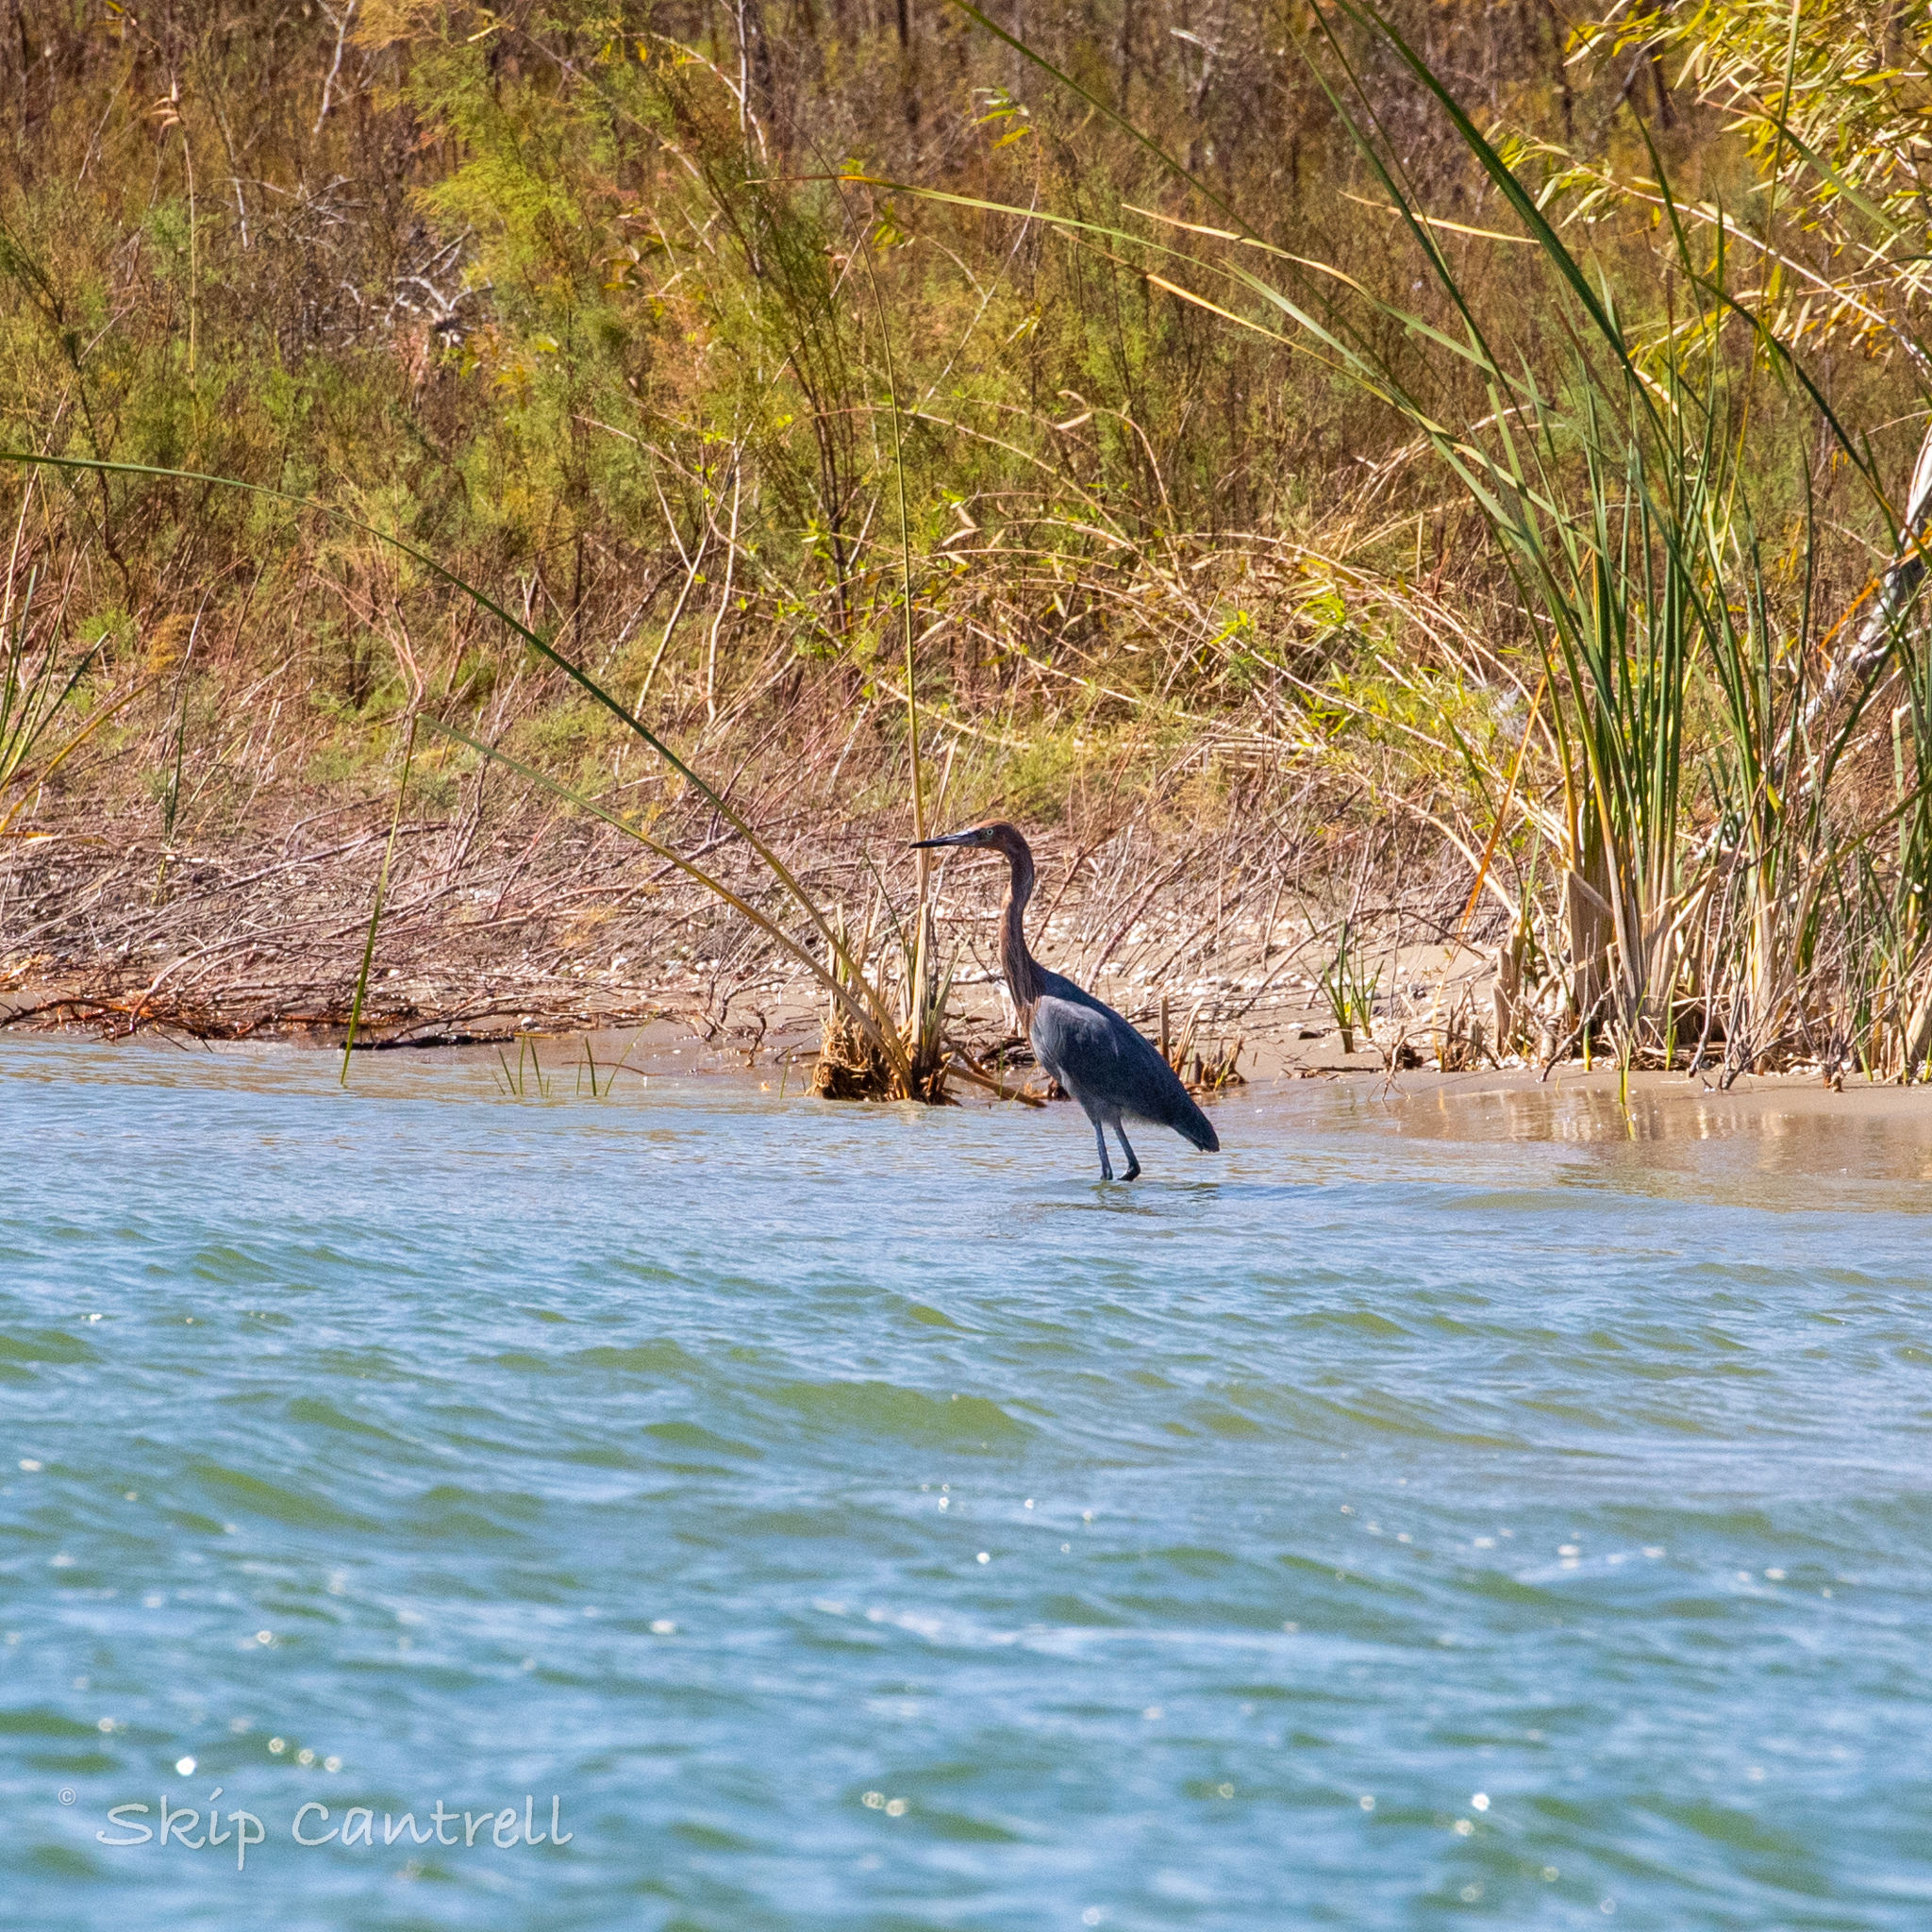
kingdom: Animalia
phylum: Chordata
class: Aves
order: Pelecaniformes
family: Ardeidae
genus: Egretta
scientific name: Egretta rufescens
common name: Reddish egret
